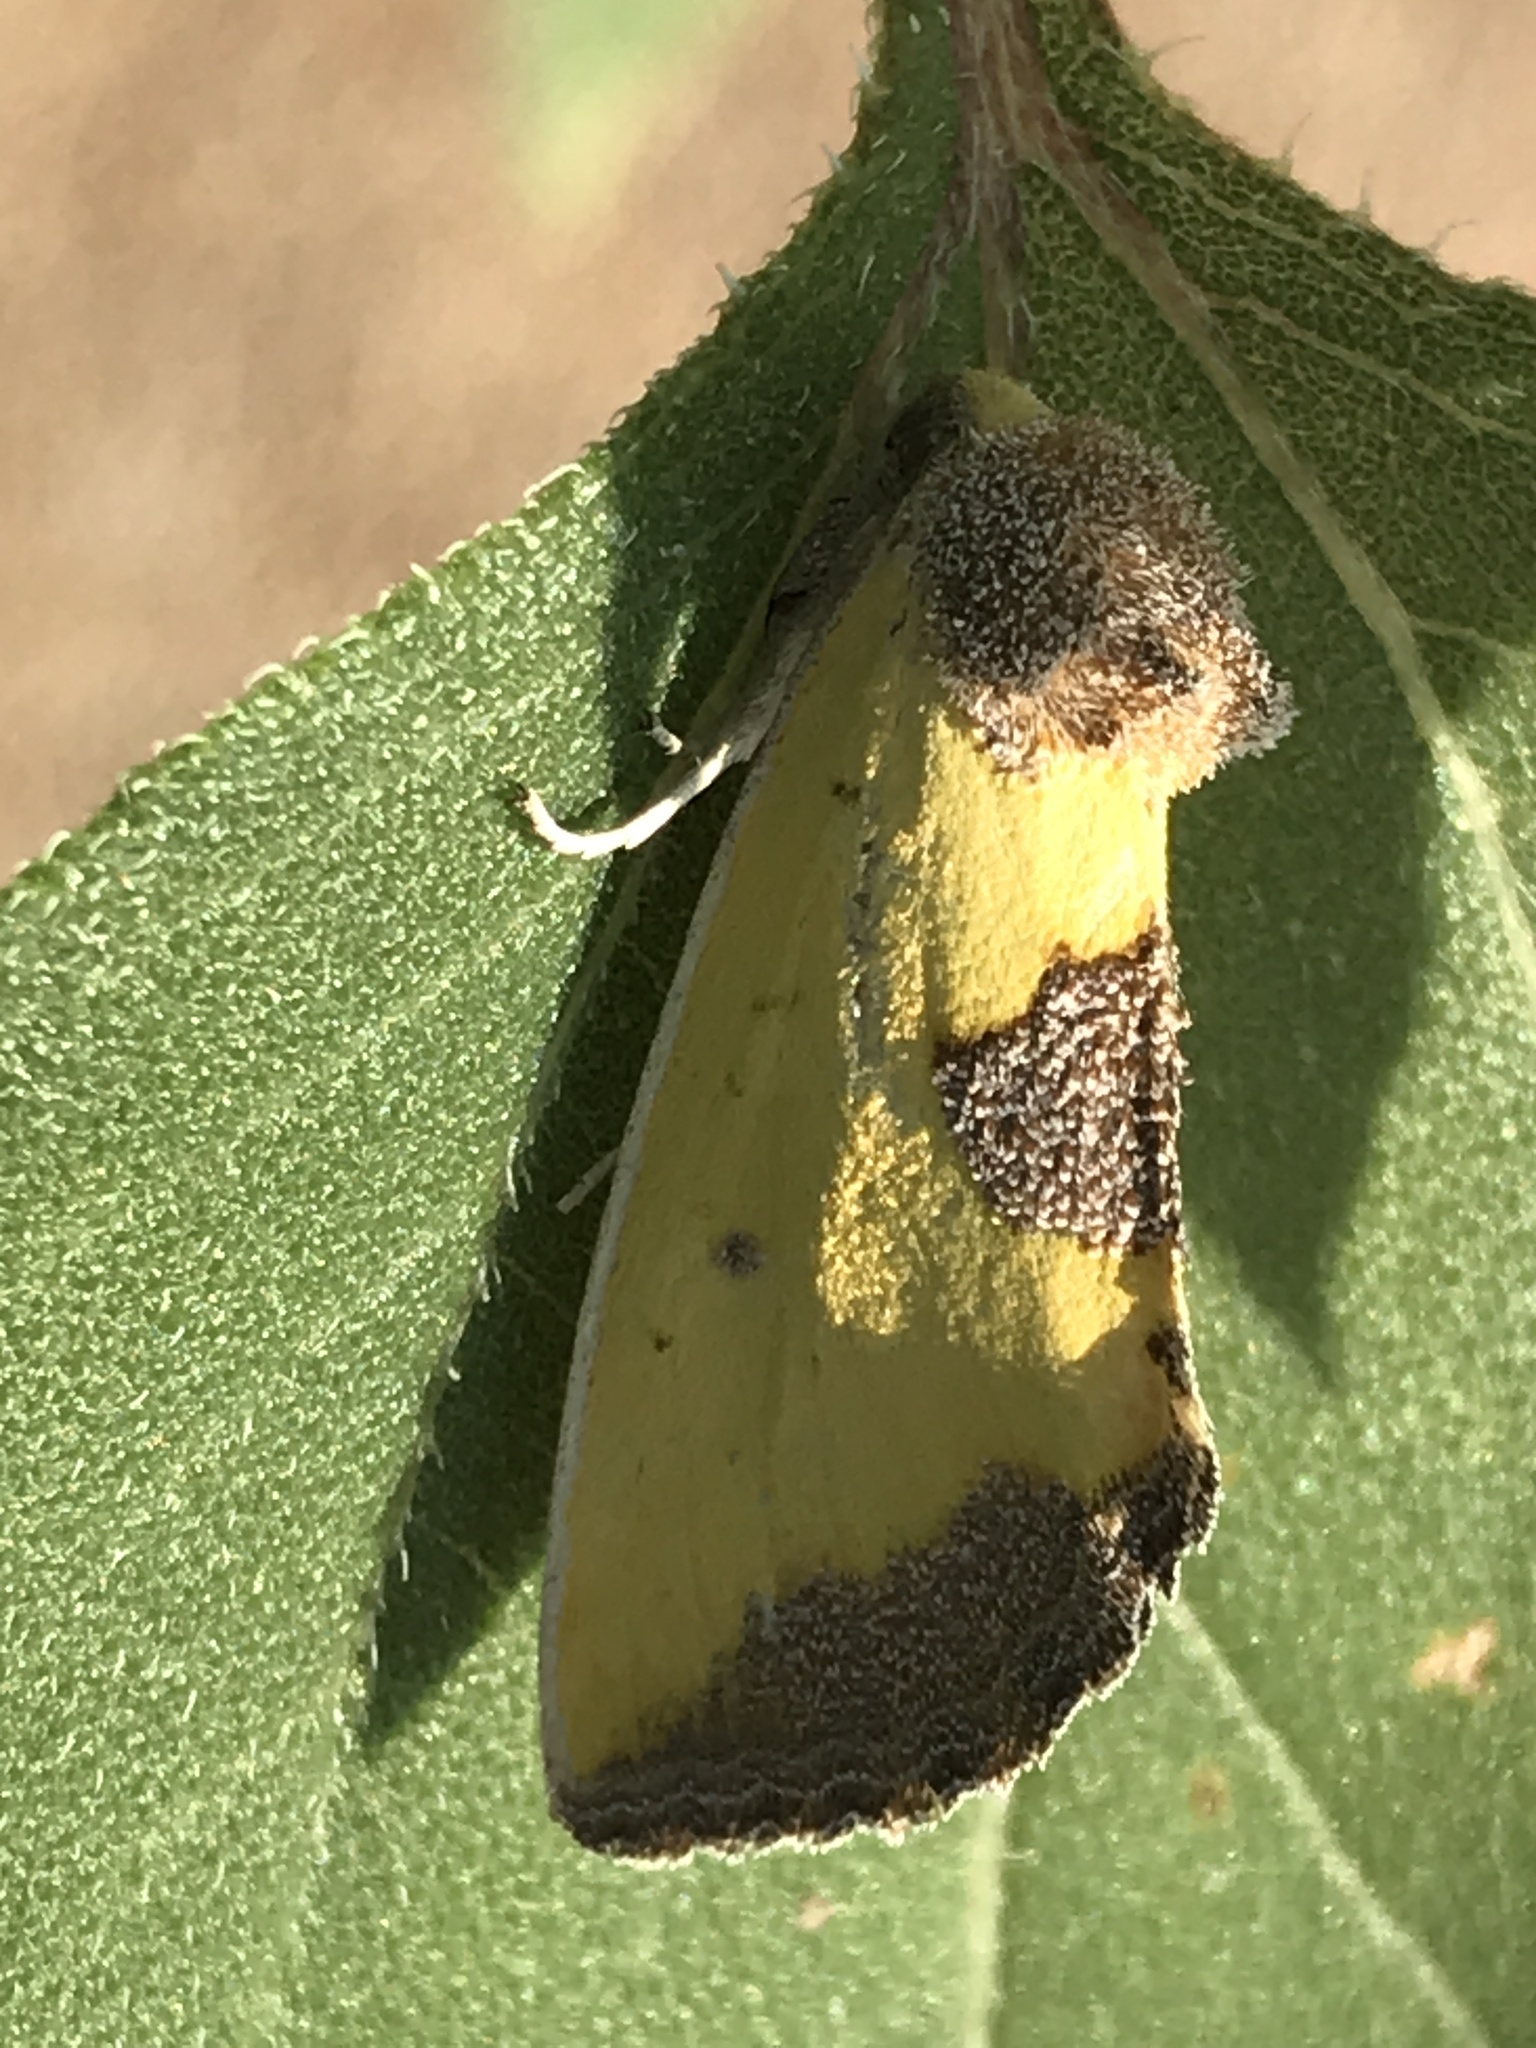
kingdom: Animalia
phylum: Arthropoda
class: Insecta
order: Lepidoptera
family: Noctuidae
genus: Stiria
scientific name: Stiria rugifrons
